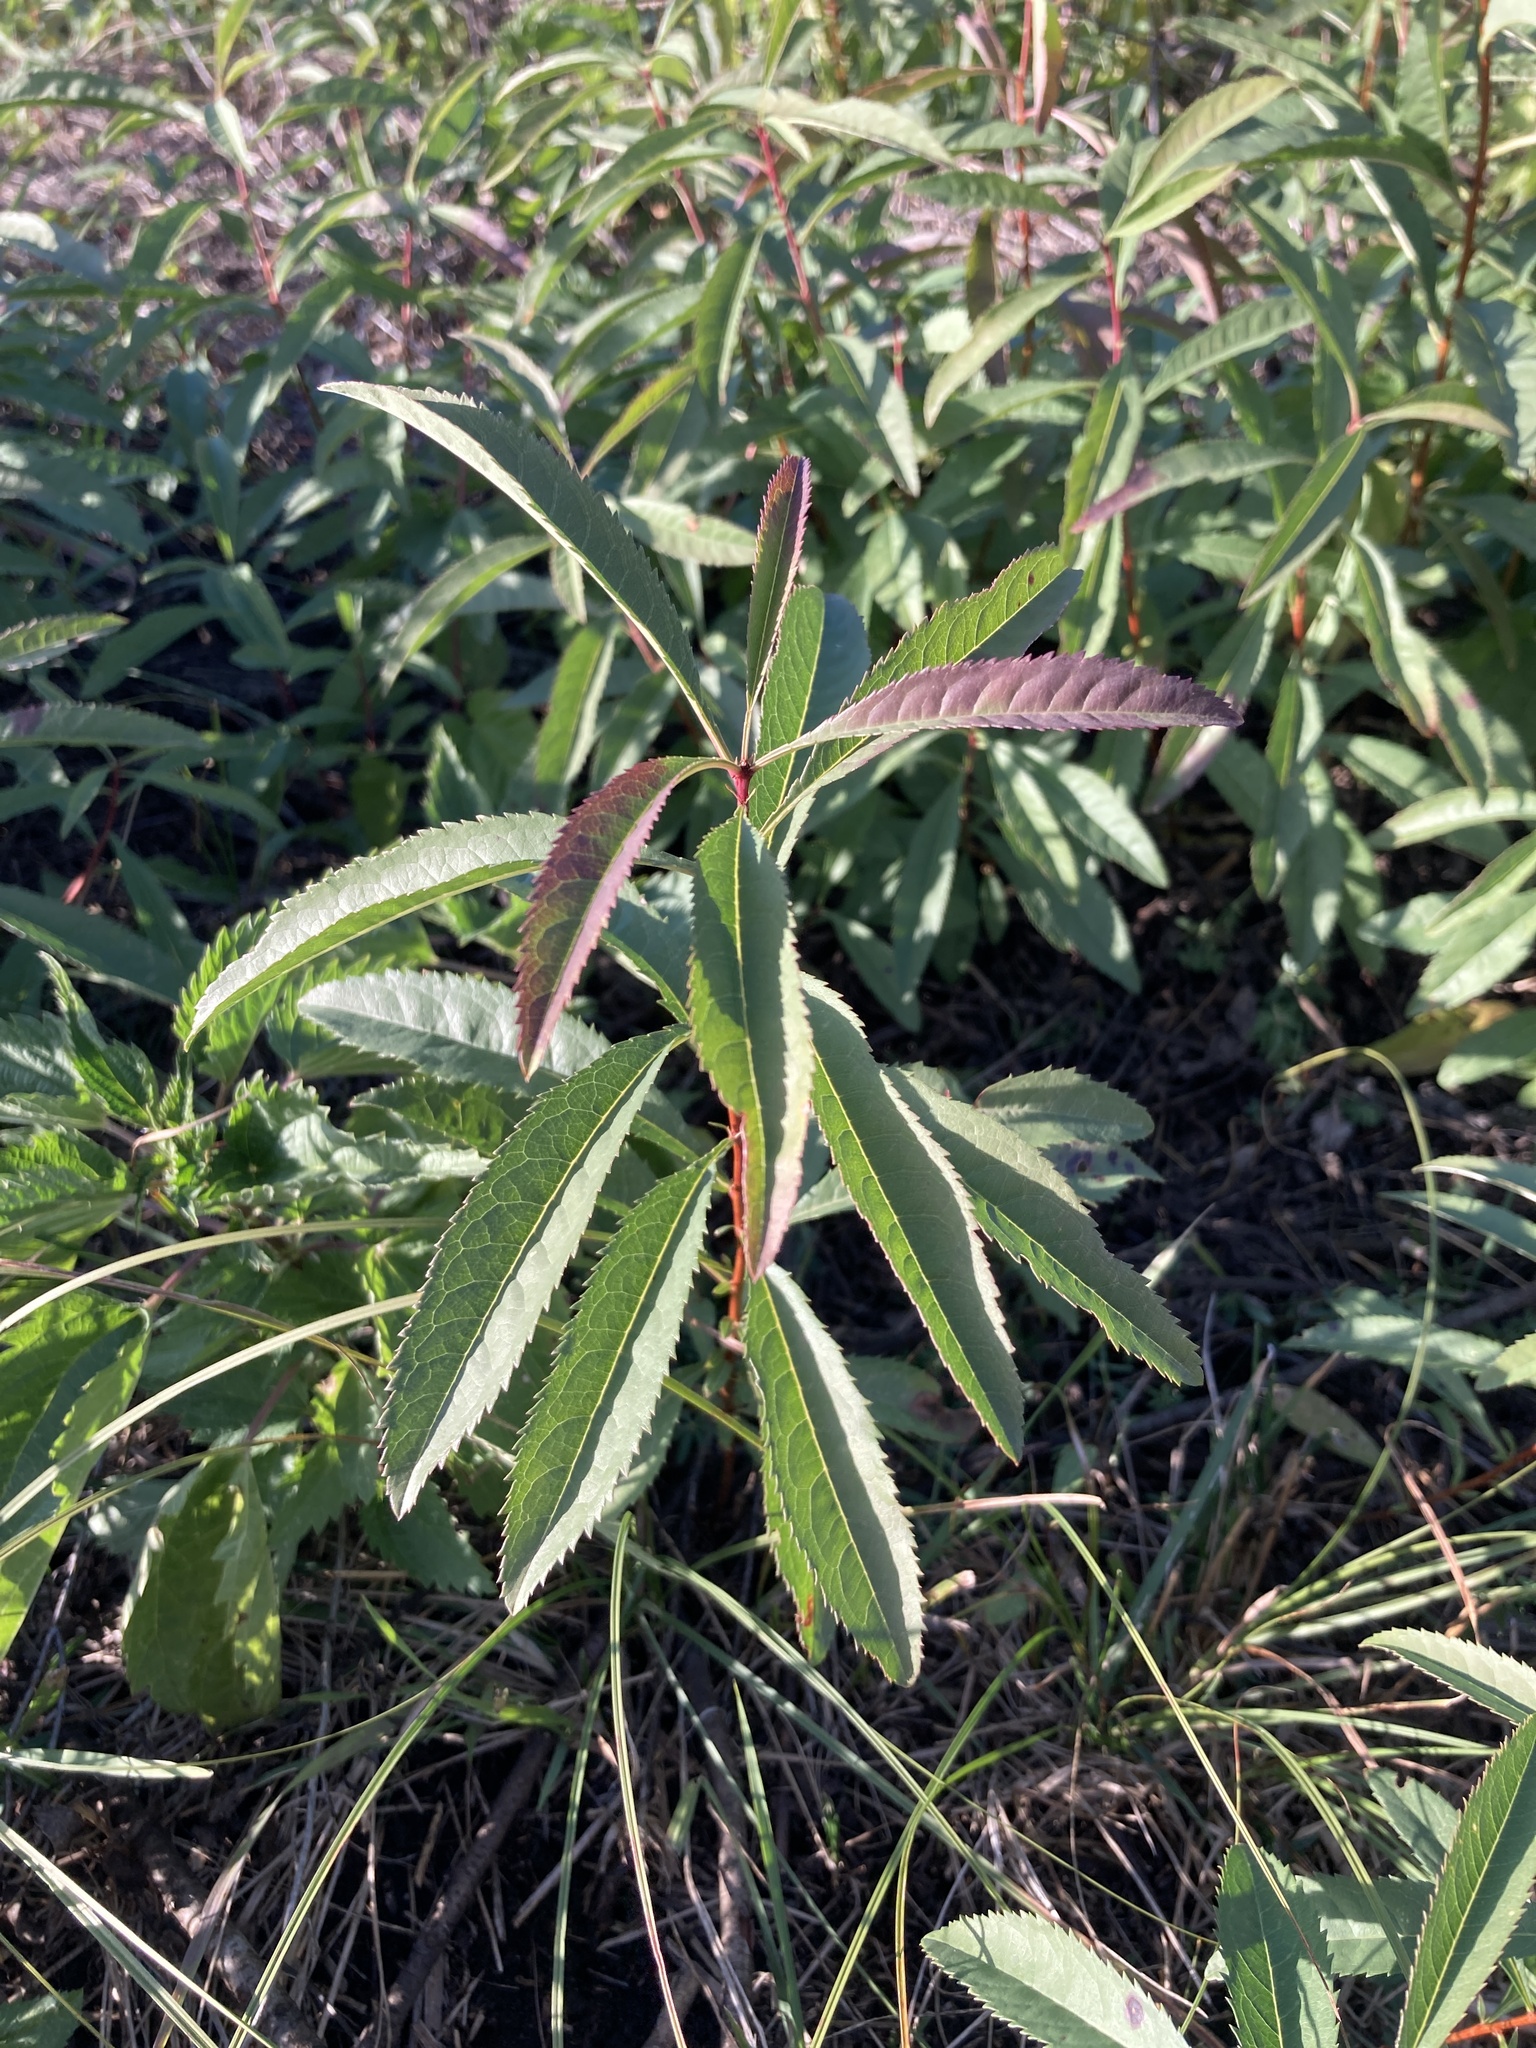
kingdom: Plantae
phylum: Tracheophyta
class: Magnoliopsida
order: Rosales
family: Rosaceae
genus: Prunus
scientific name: Prunus tenella
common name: Dwarf russian almond
